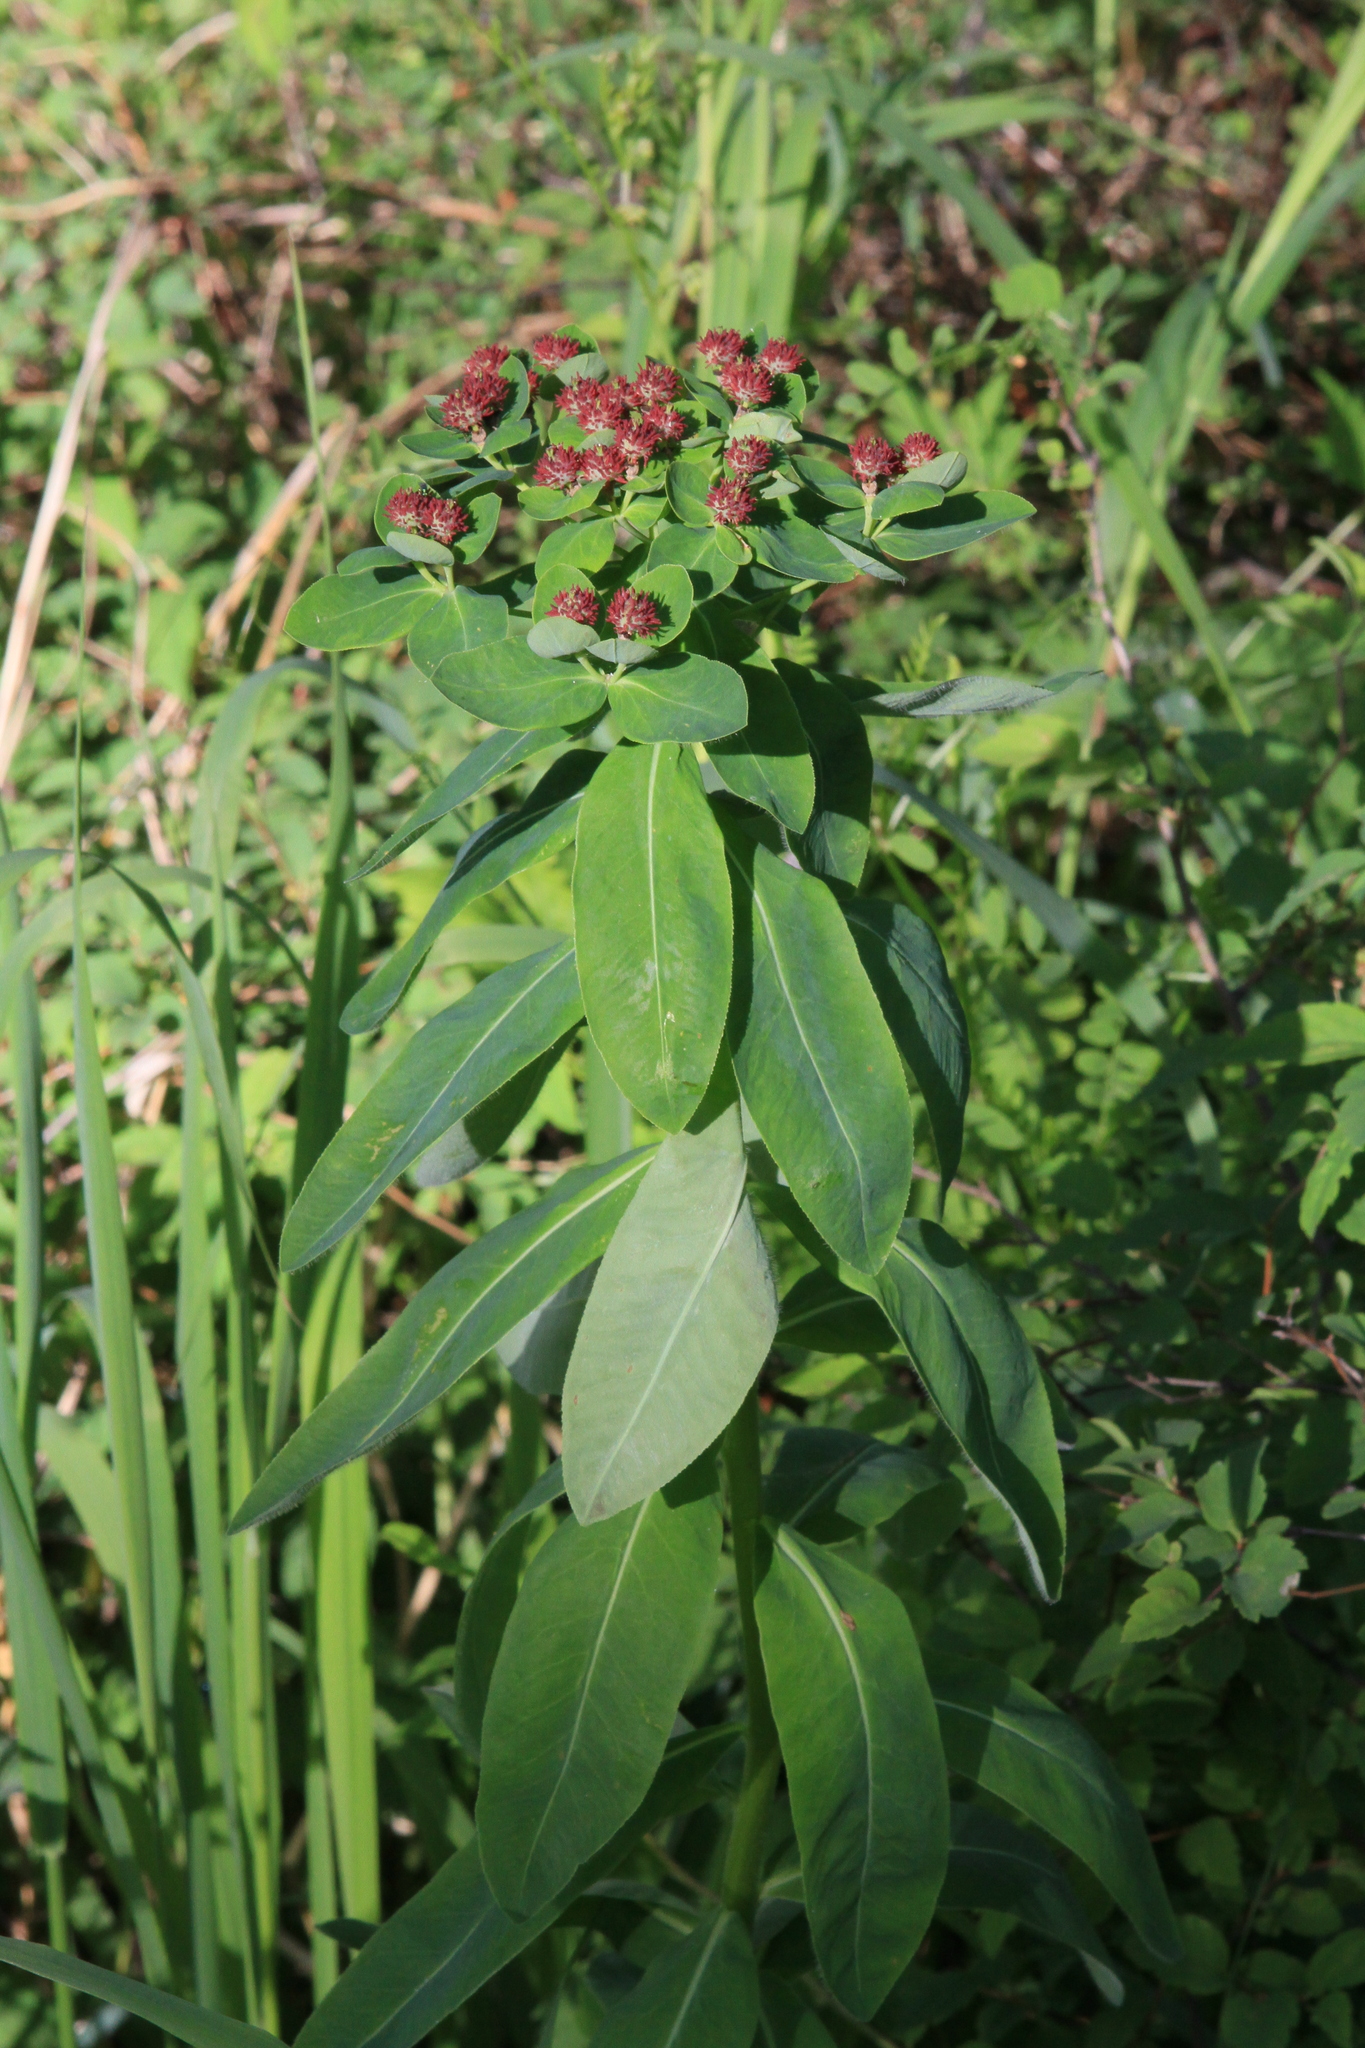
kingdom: Plantae
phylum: Tracheophyta
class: Magnoliopsida
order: Malpighiales
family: Euphorbiaceae
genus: Euphorbia
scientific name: Euphorbia pilosa
